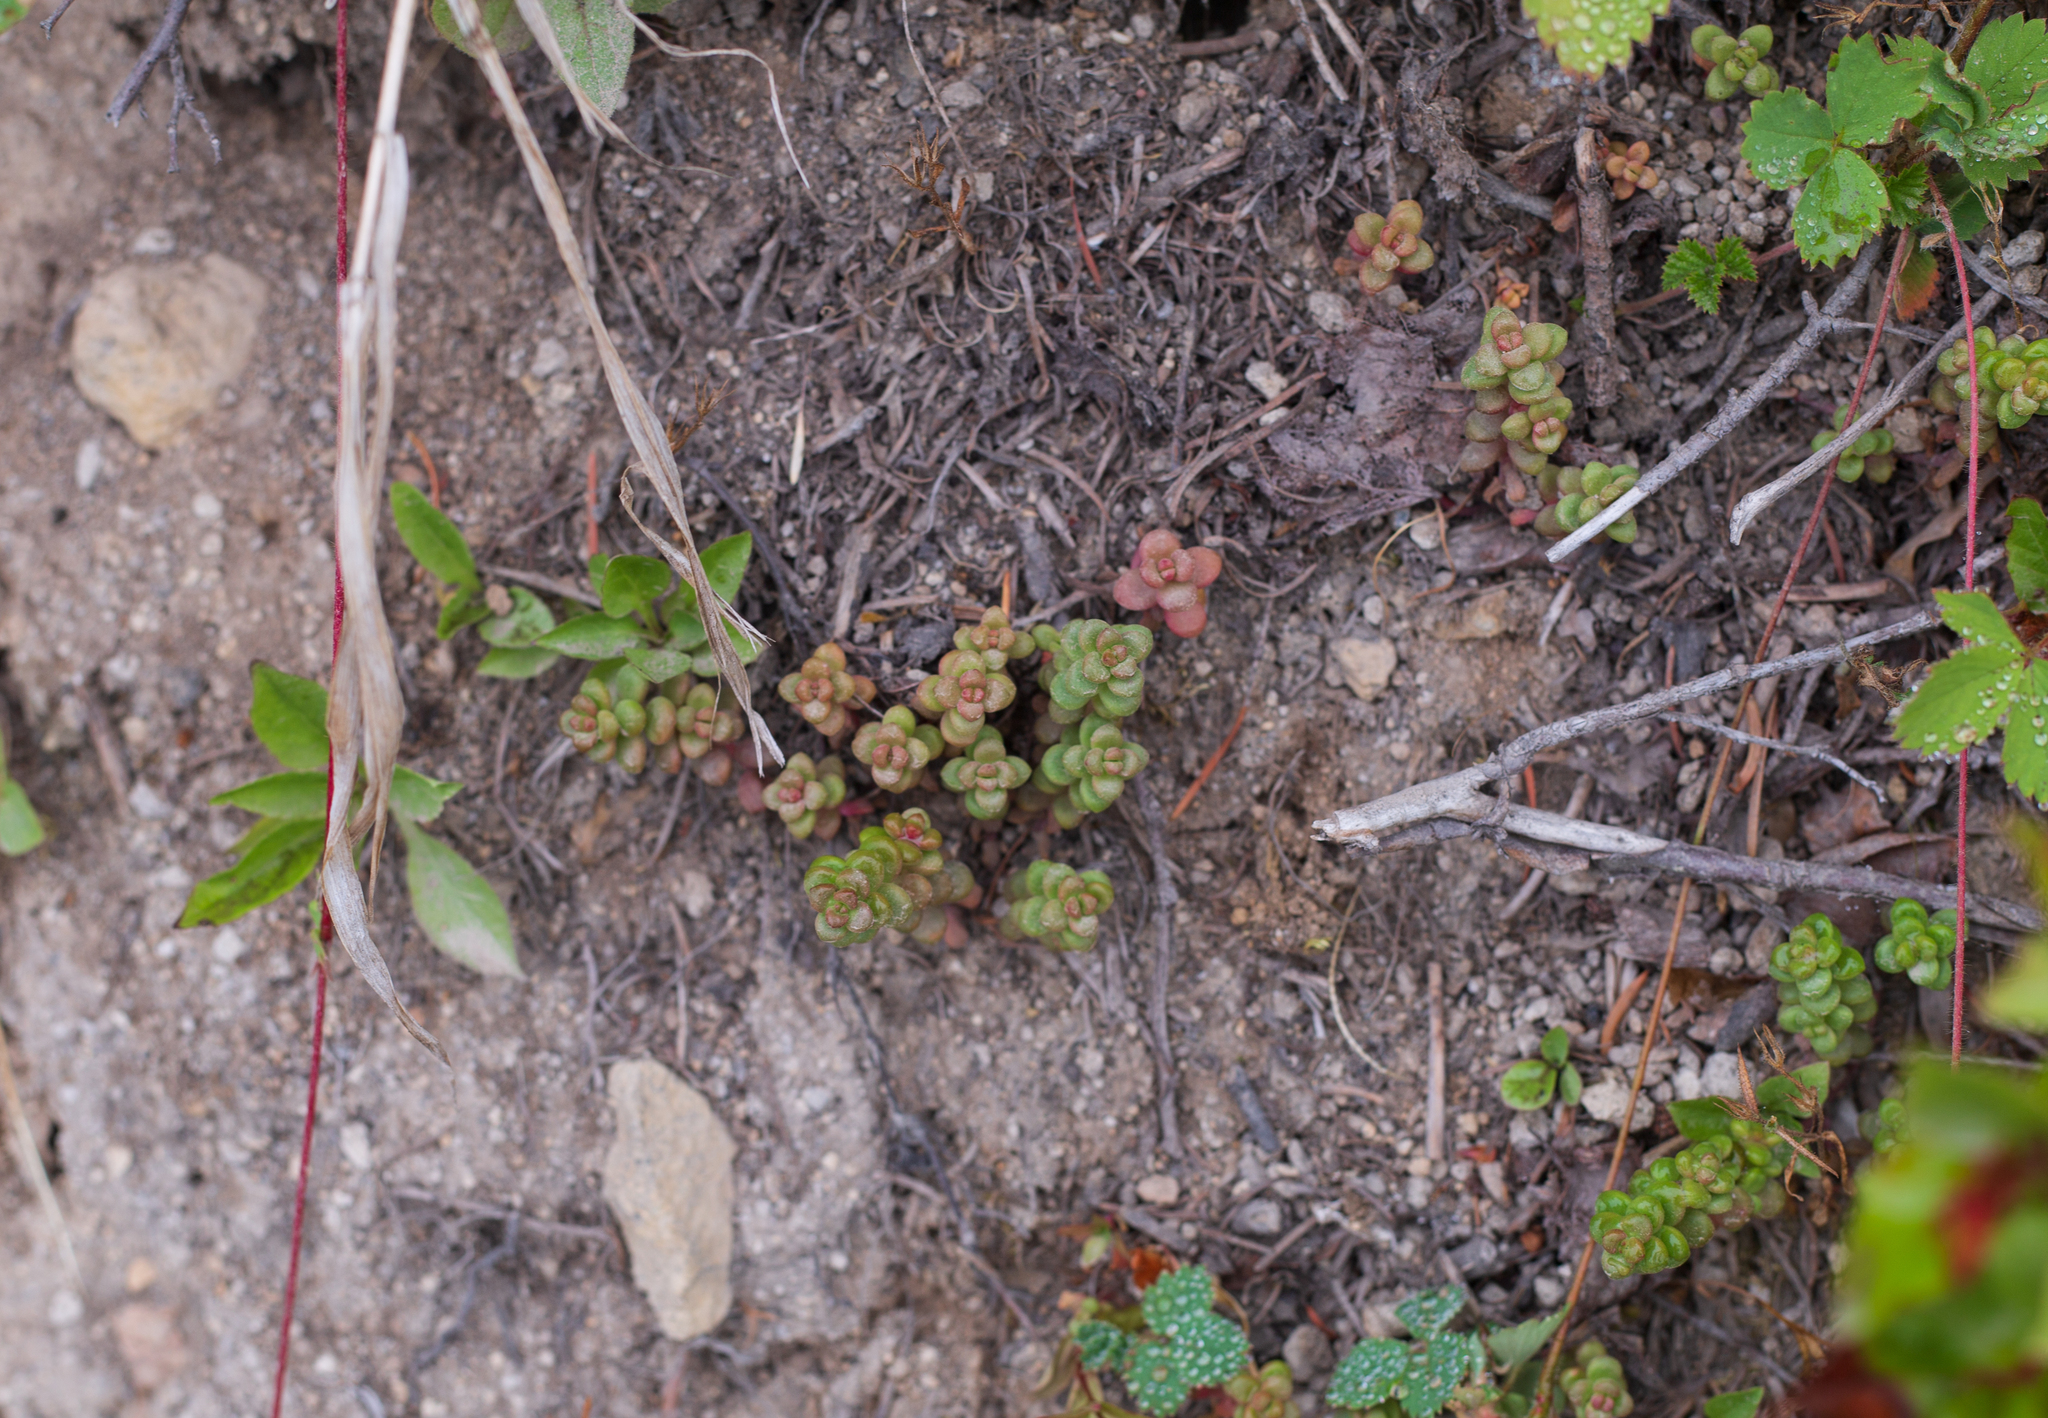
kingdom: Plantae
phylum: Tracheophyta
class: Magnoliopsida
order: Saxifragales
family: Crassulaceae
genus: Sedum
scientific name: Sedum divergens
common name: Cascade stonecrop
